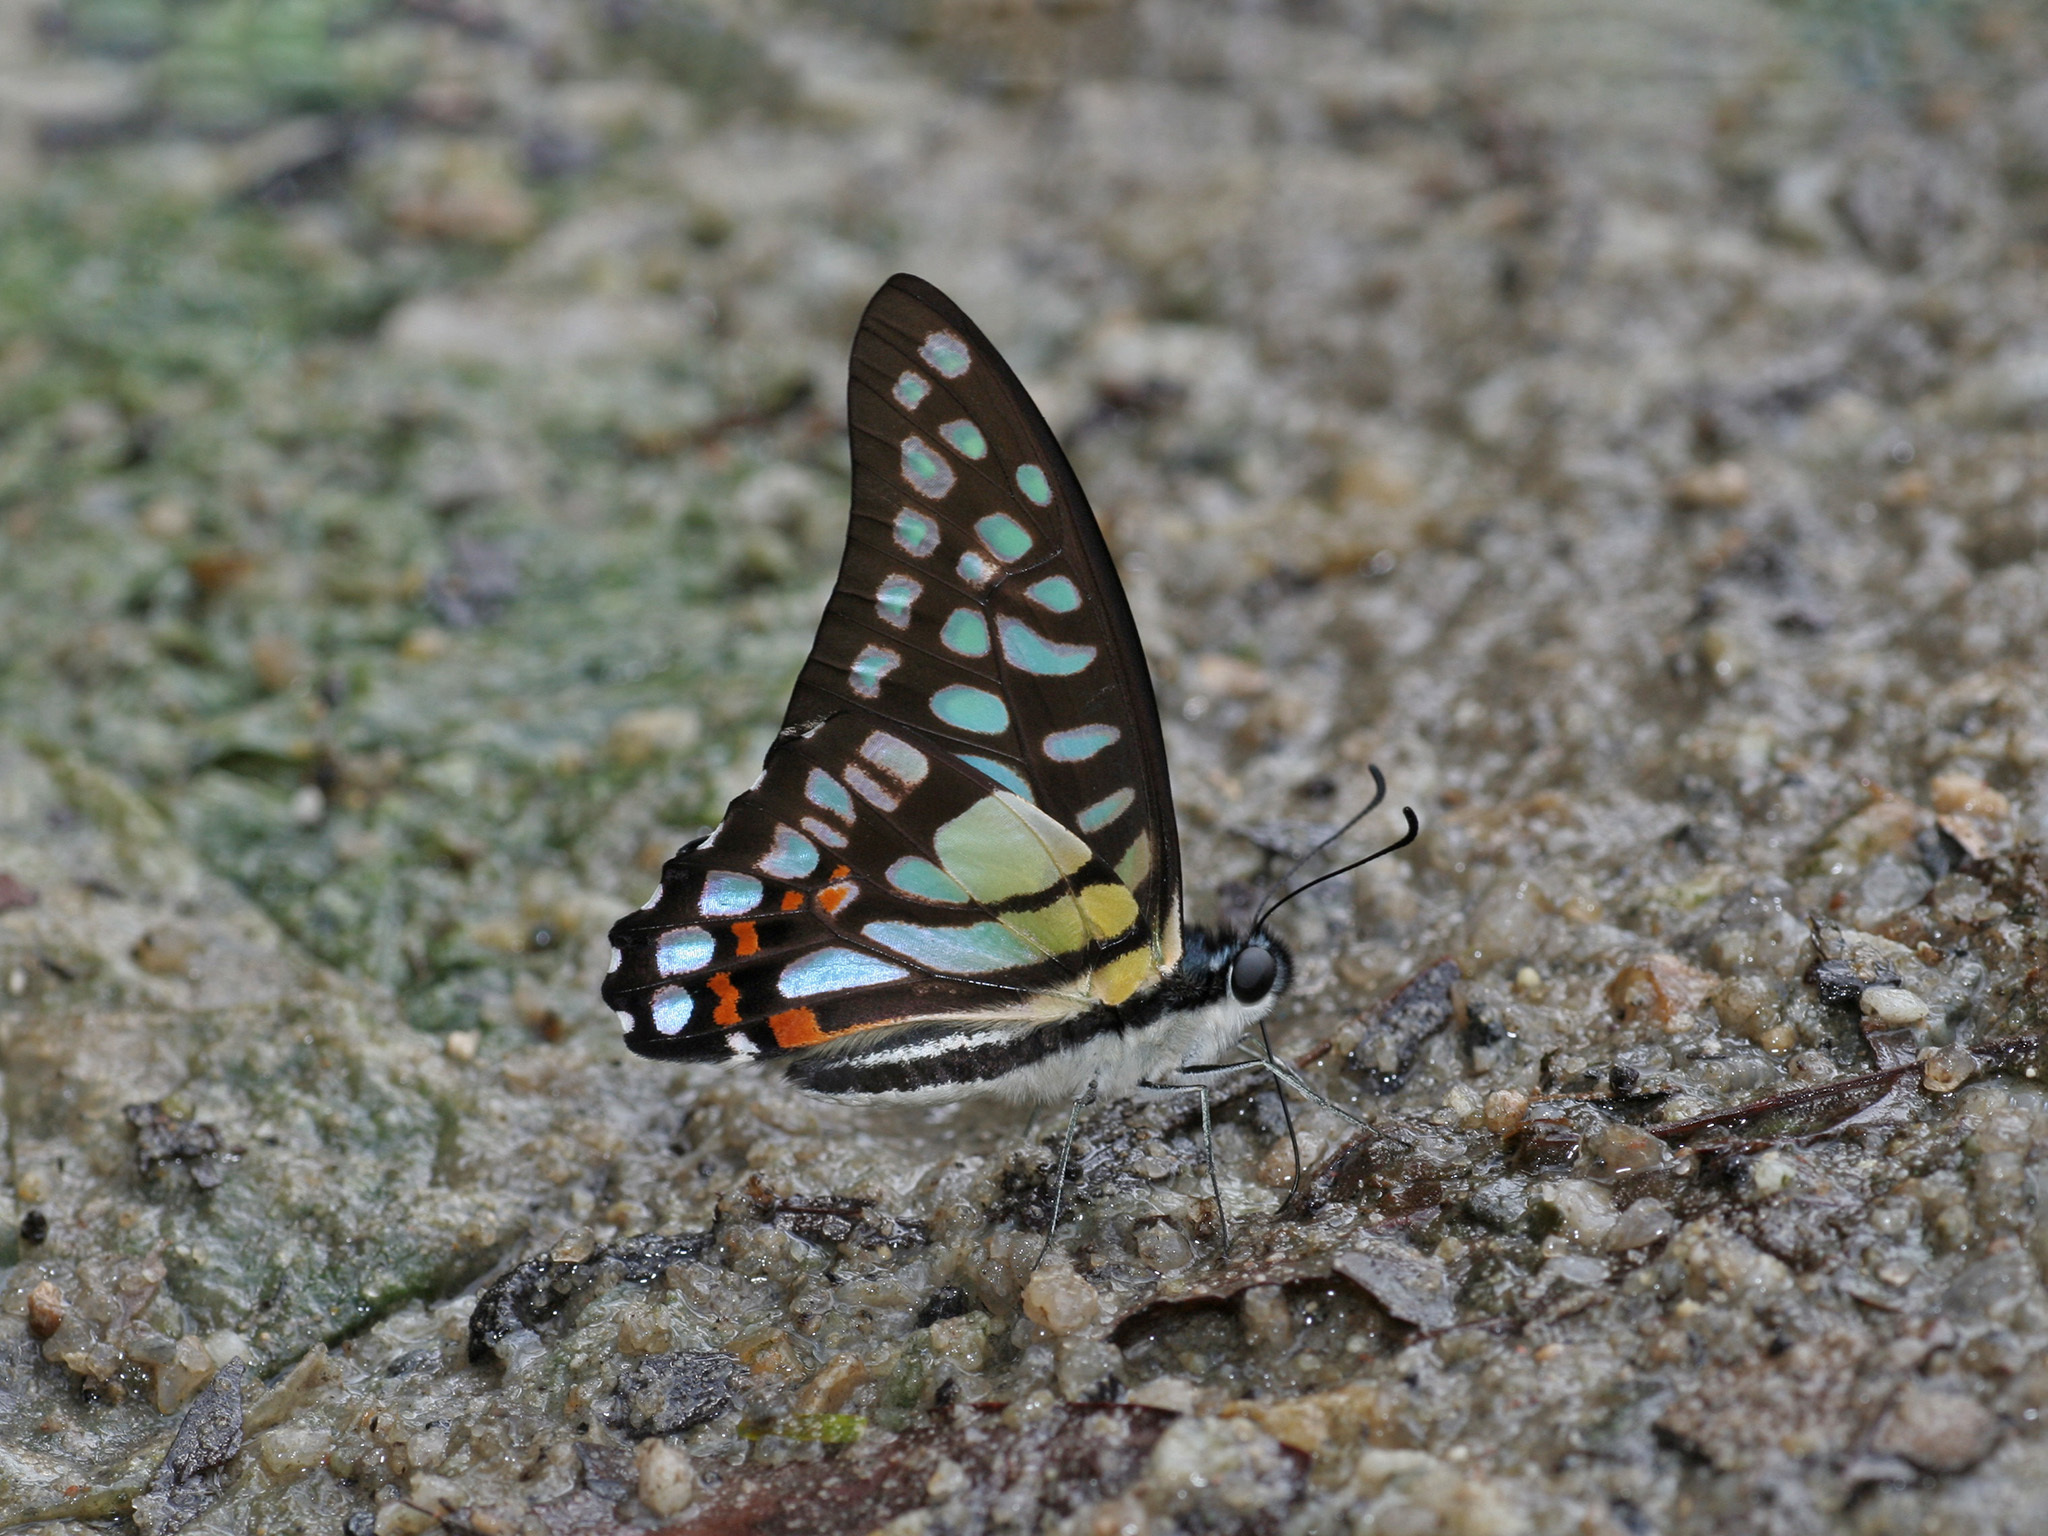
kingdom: Animalia
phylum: Arthropoda
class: Insecta
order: Lepidoptera
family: Papilionidae
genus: Graphium
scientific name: Graphium bathycles
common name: Veined jay
